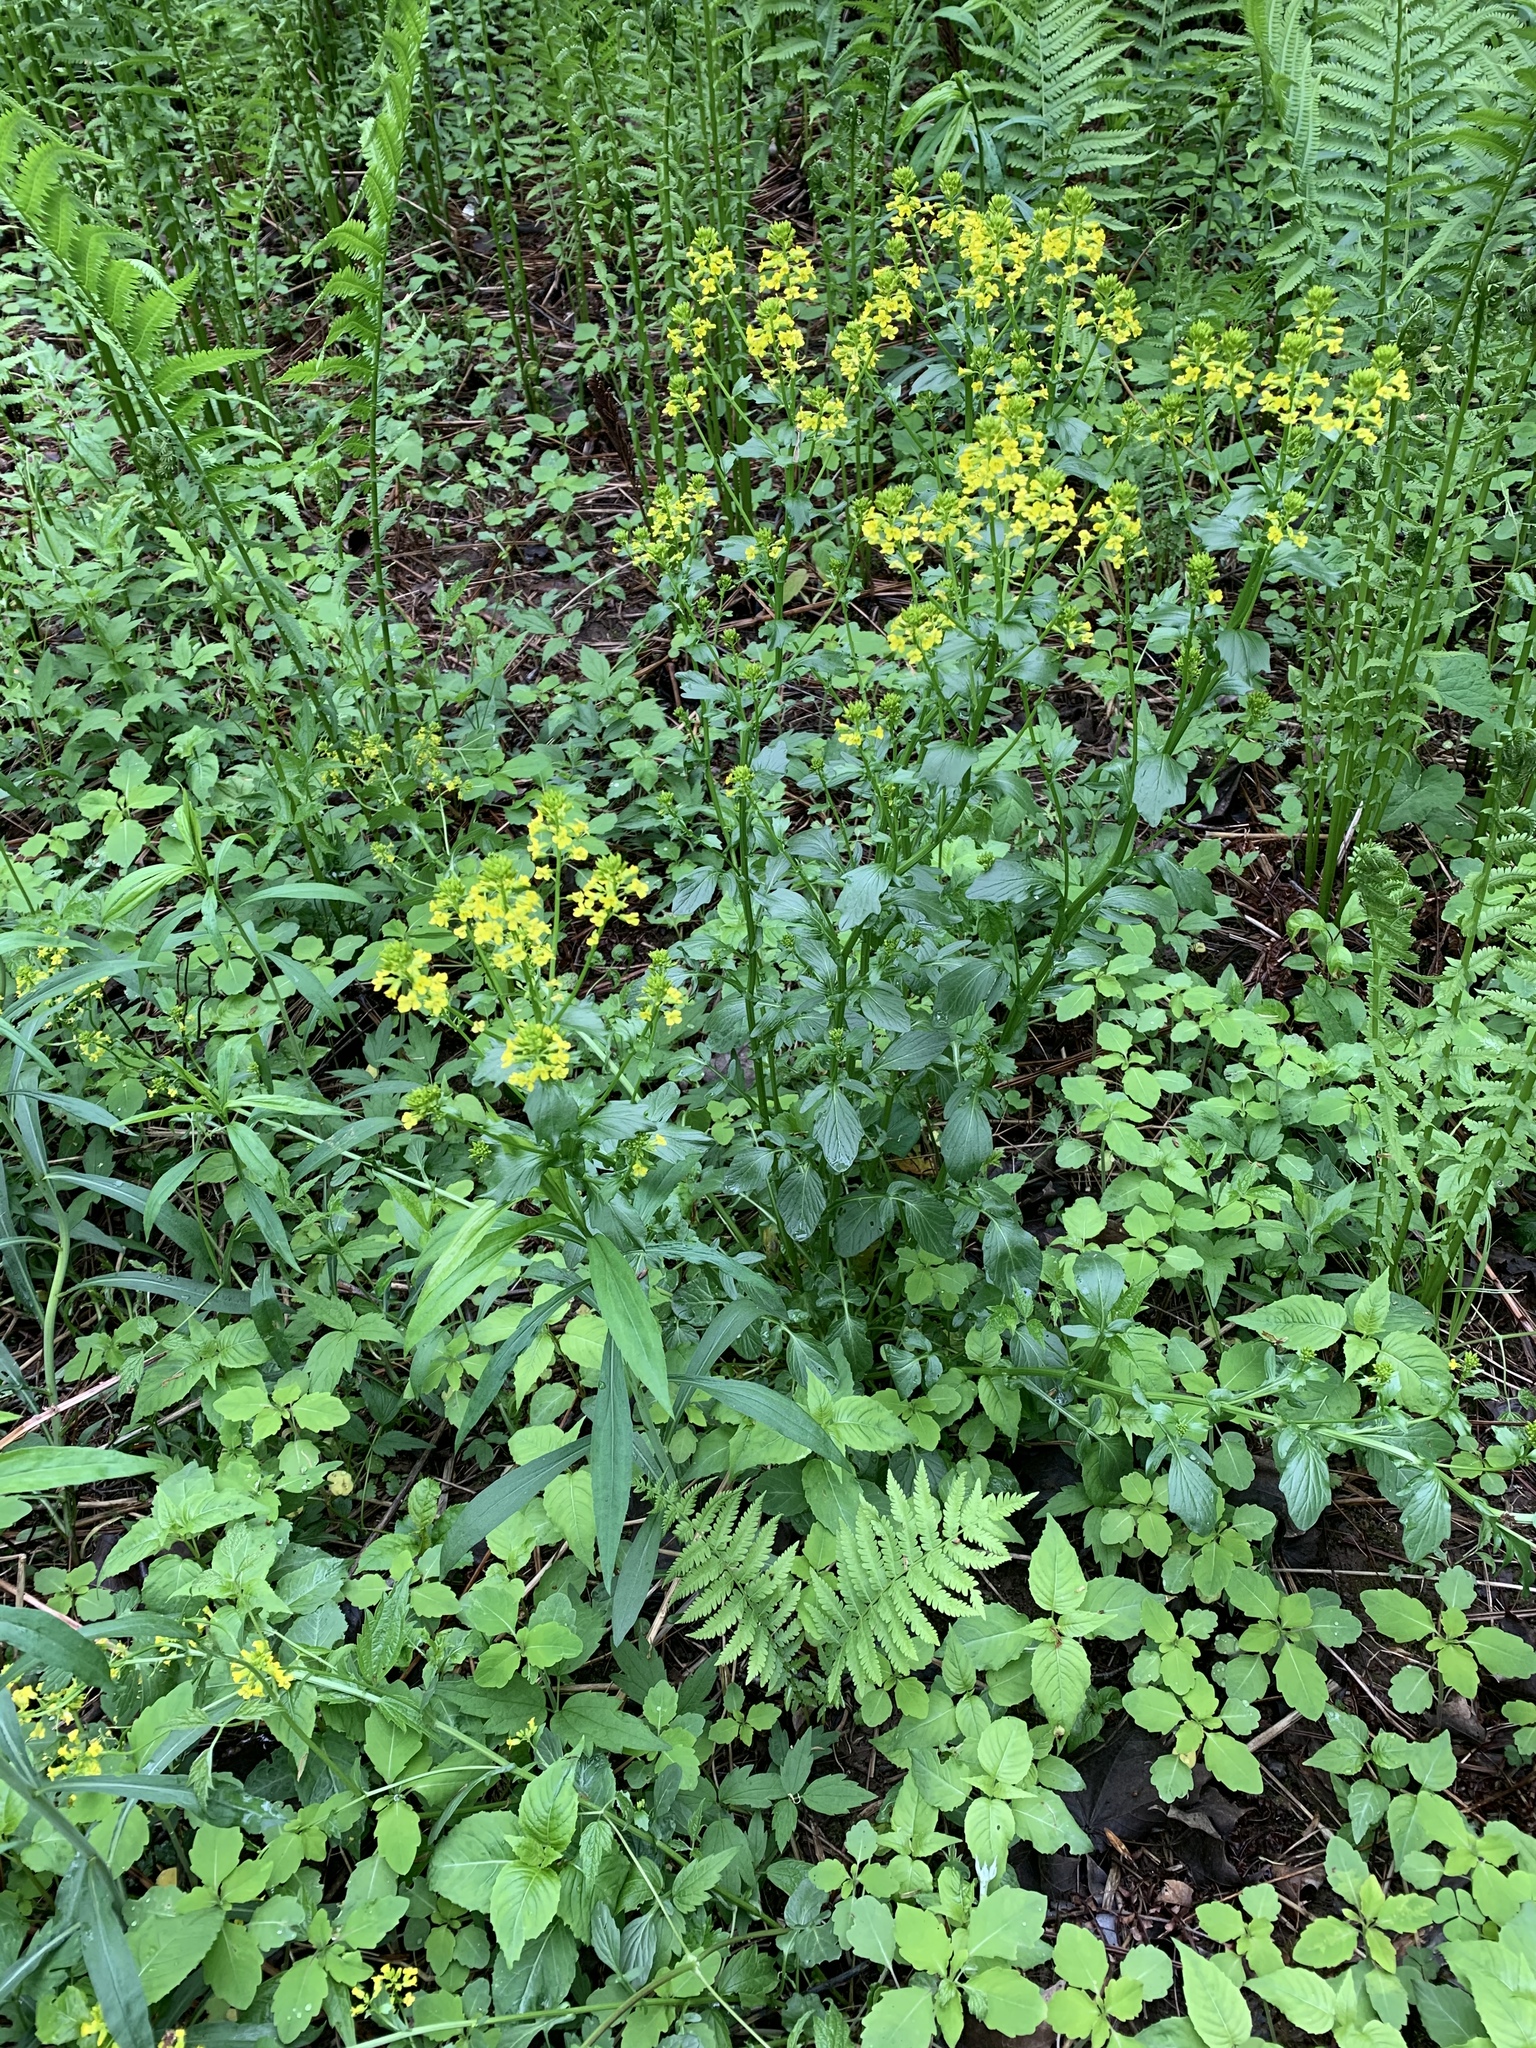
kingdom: Plantae
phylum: Tracheophyta
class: Magnoliopsida
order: Brassicales
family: Brassicaceae
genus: Barbarea
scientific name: Barbarea vulgaris
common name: Cressy-greens
